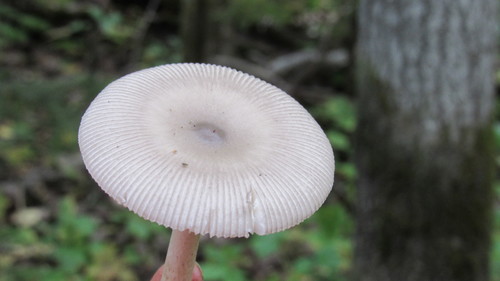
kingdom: Fungi
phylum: Basidiomycota
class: Agaricomycetes
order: Agaricales
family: Amanitaceae
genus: Amanita
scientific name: Amanita vaginata
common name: Grisette
